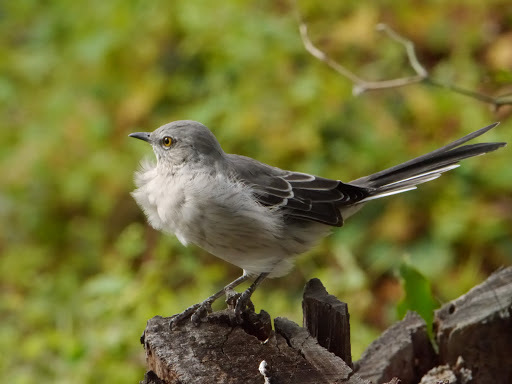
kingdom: Animalia
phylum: Chordata
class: Aves
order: Passeriformes
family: Mimidae
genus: Mimus
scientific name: Mimus polyglottos
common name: Northern mockingbird
